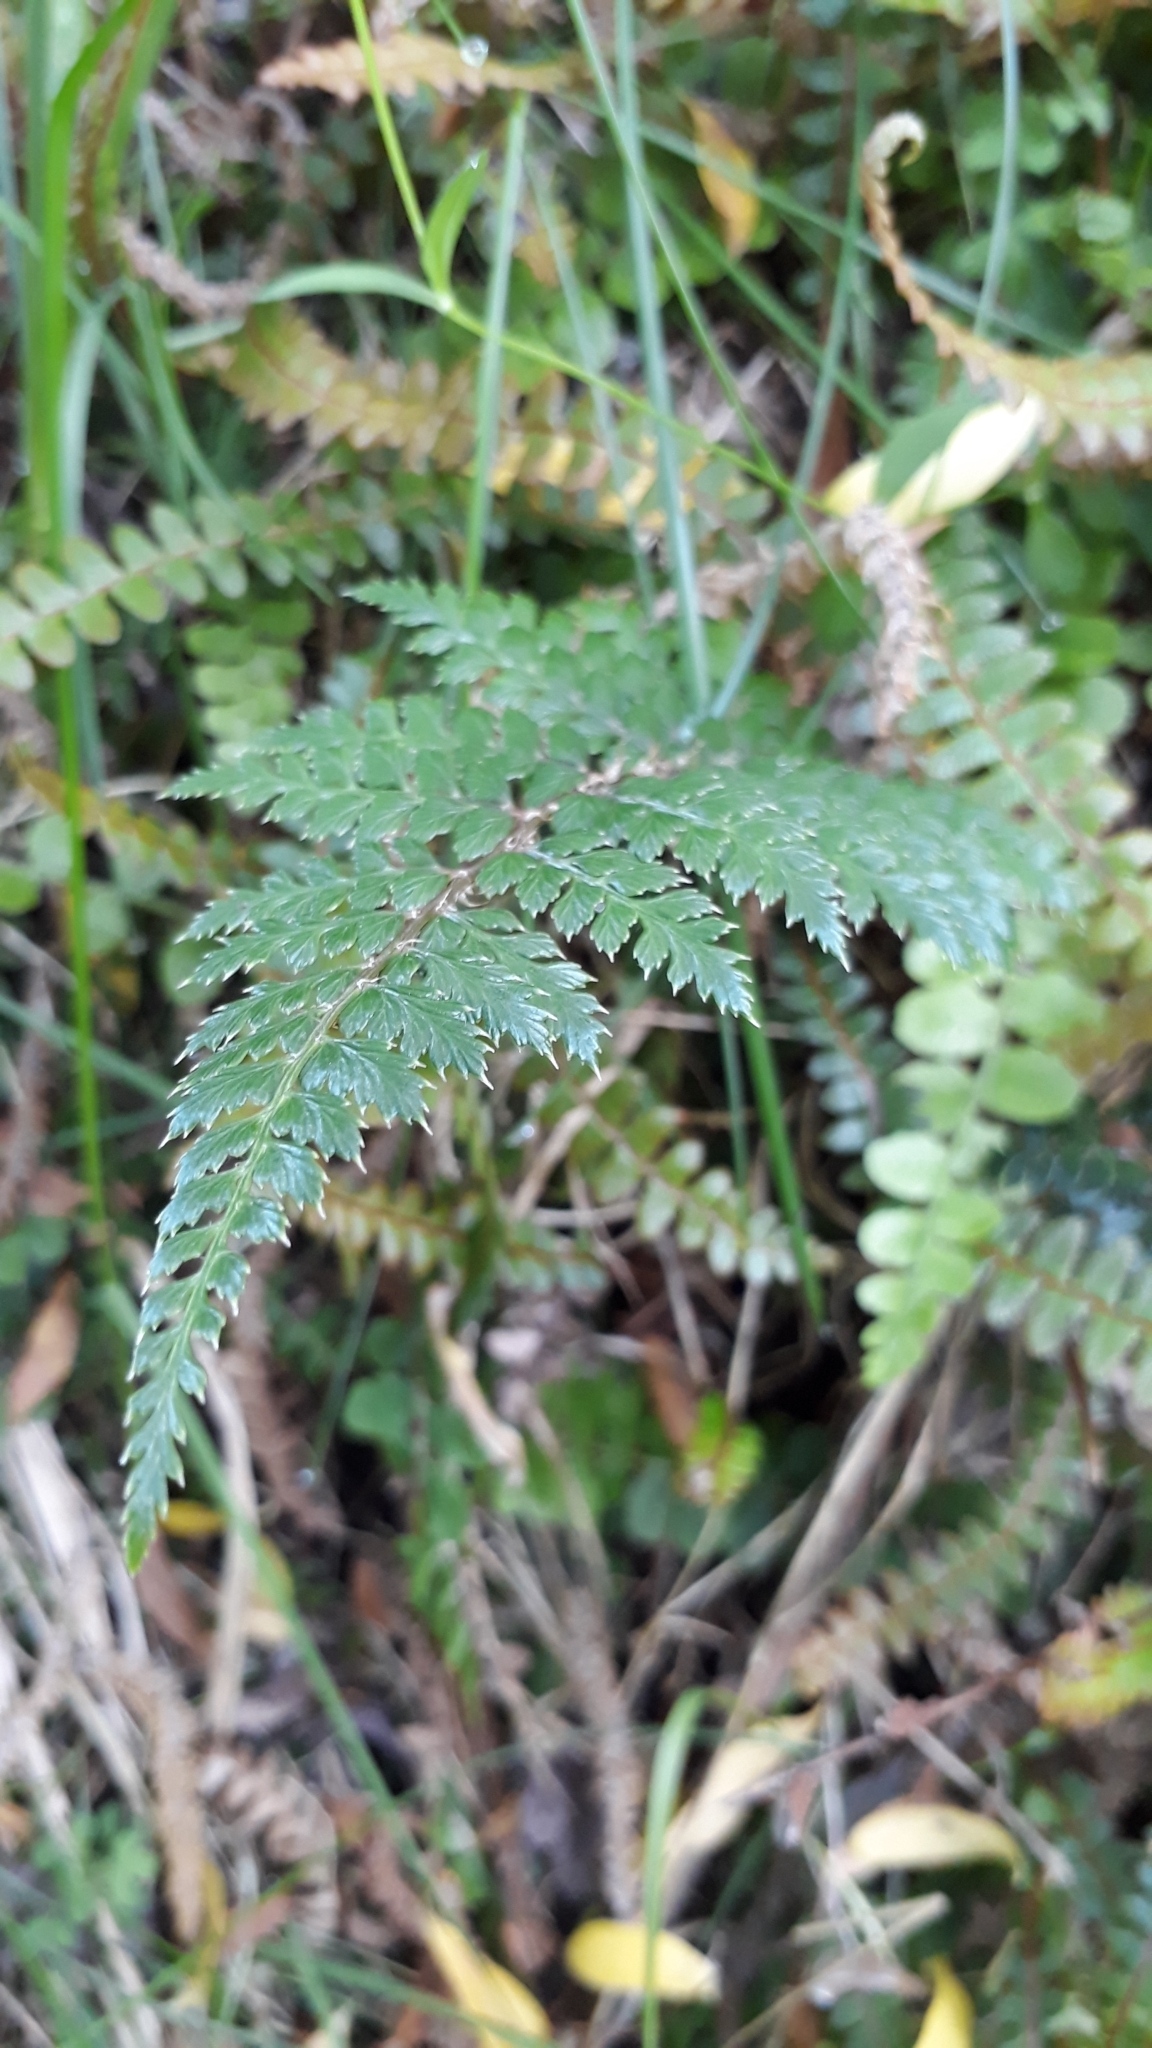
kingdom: Plantae
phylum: Tracheophyta
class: Polypodiopsida
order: Polypodiales
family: Dryopteridaceae
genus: Polystichum
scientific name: Polystichum vestitum
